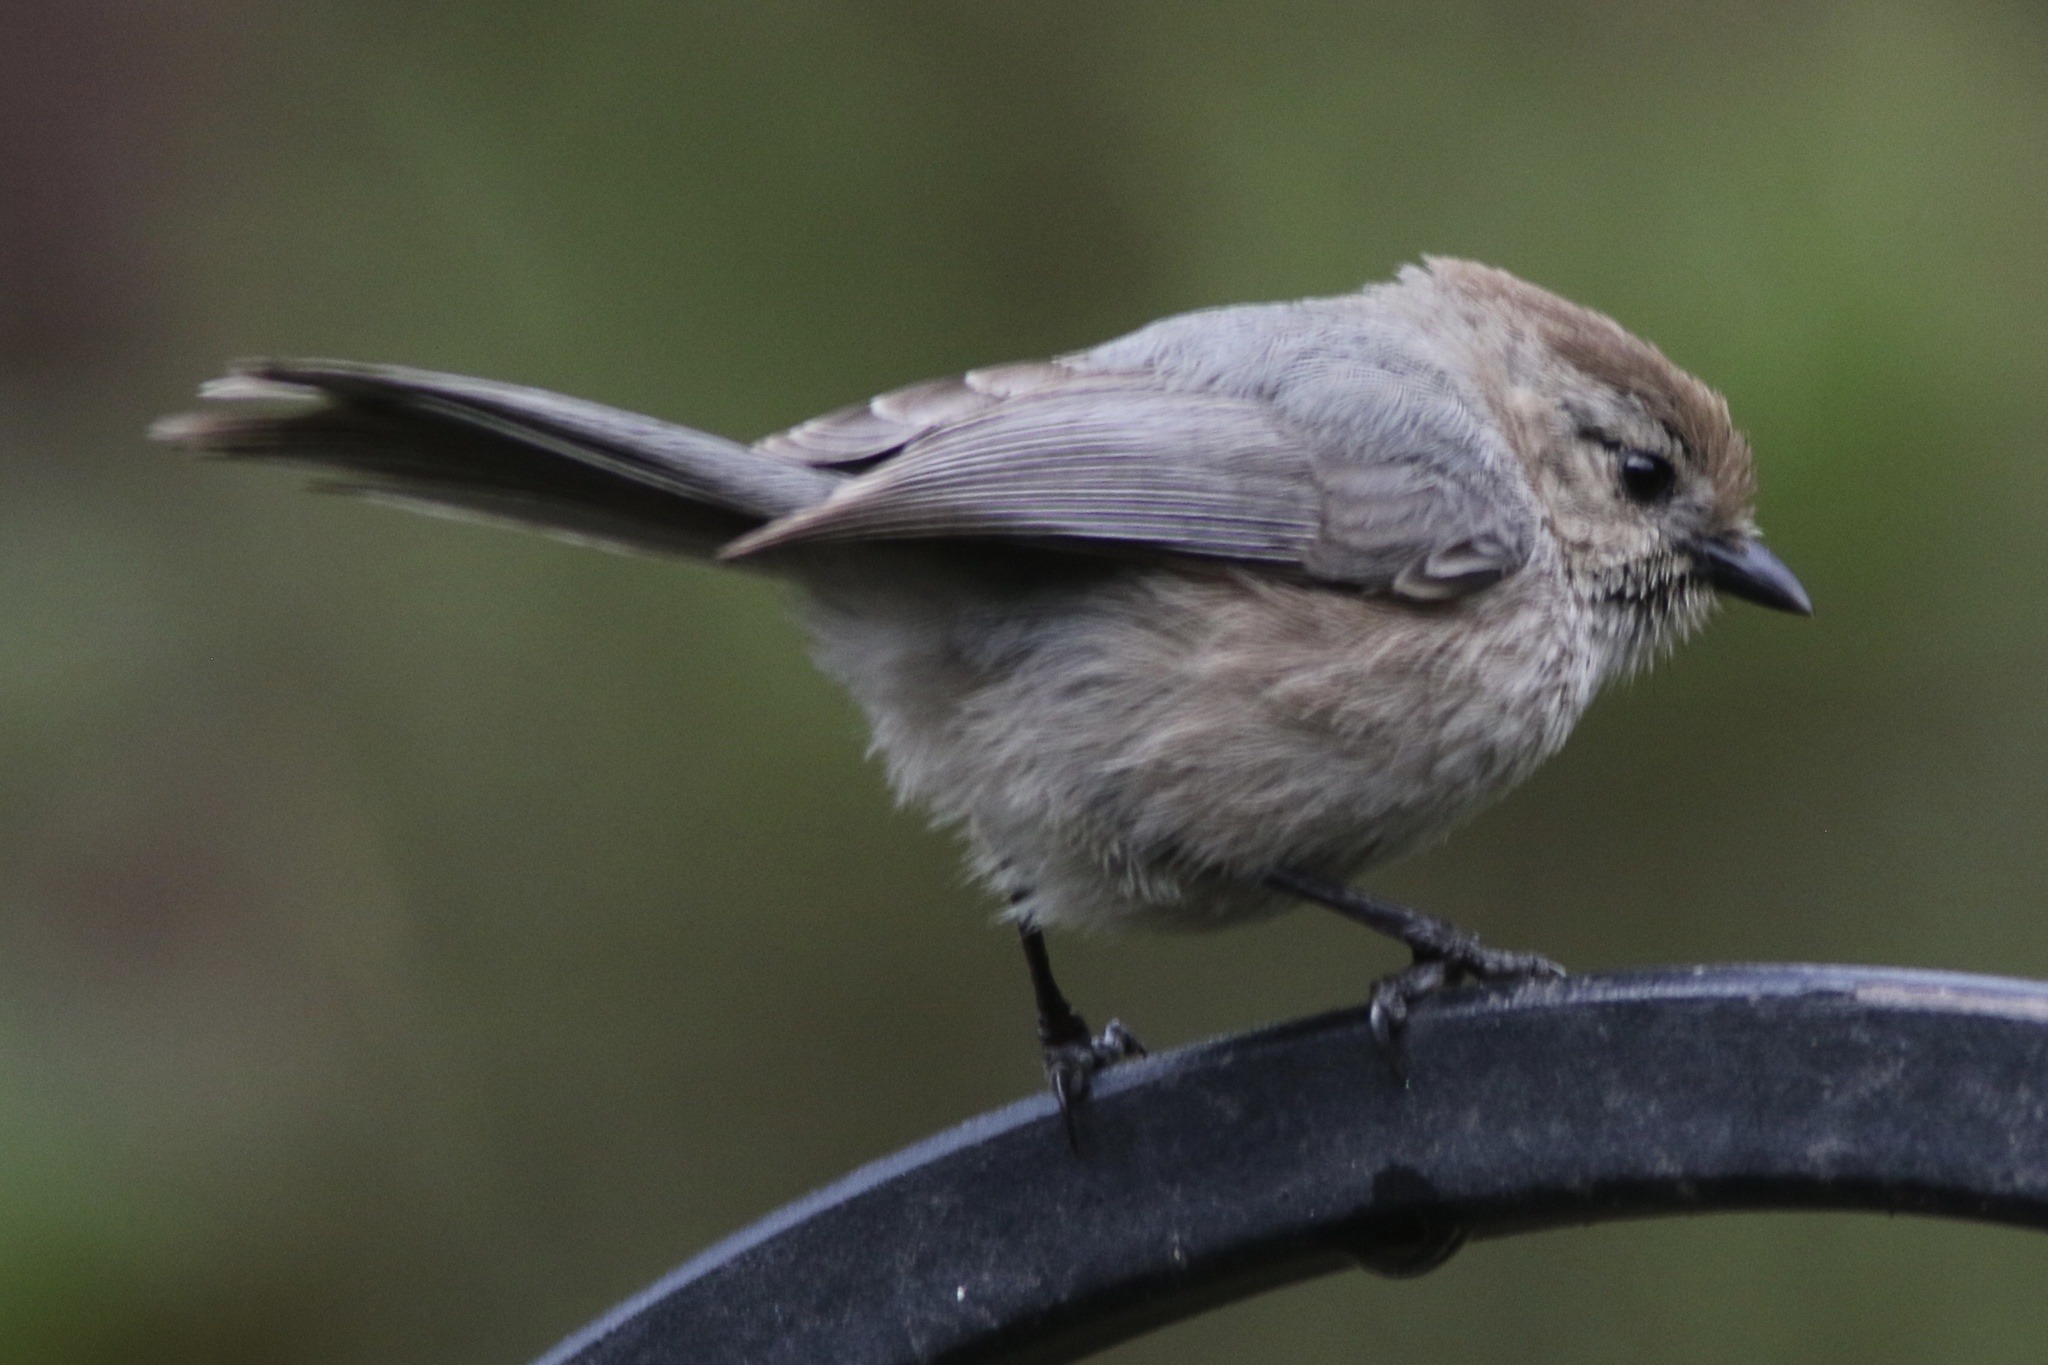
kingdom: Animalia
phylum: Chordata
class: Aves
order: Passeriformes
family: Aegithalidae
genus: Psaltriparus
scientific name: Psaltriparus minimus
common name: American bushtit
